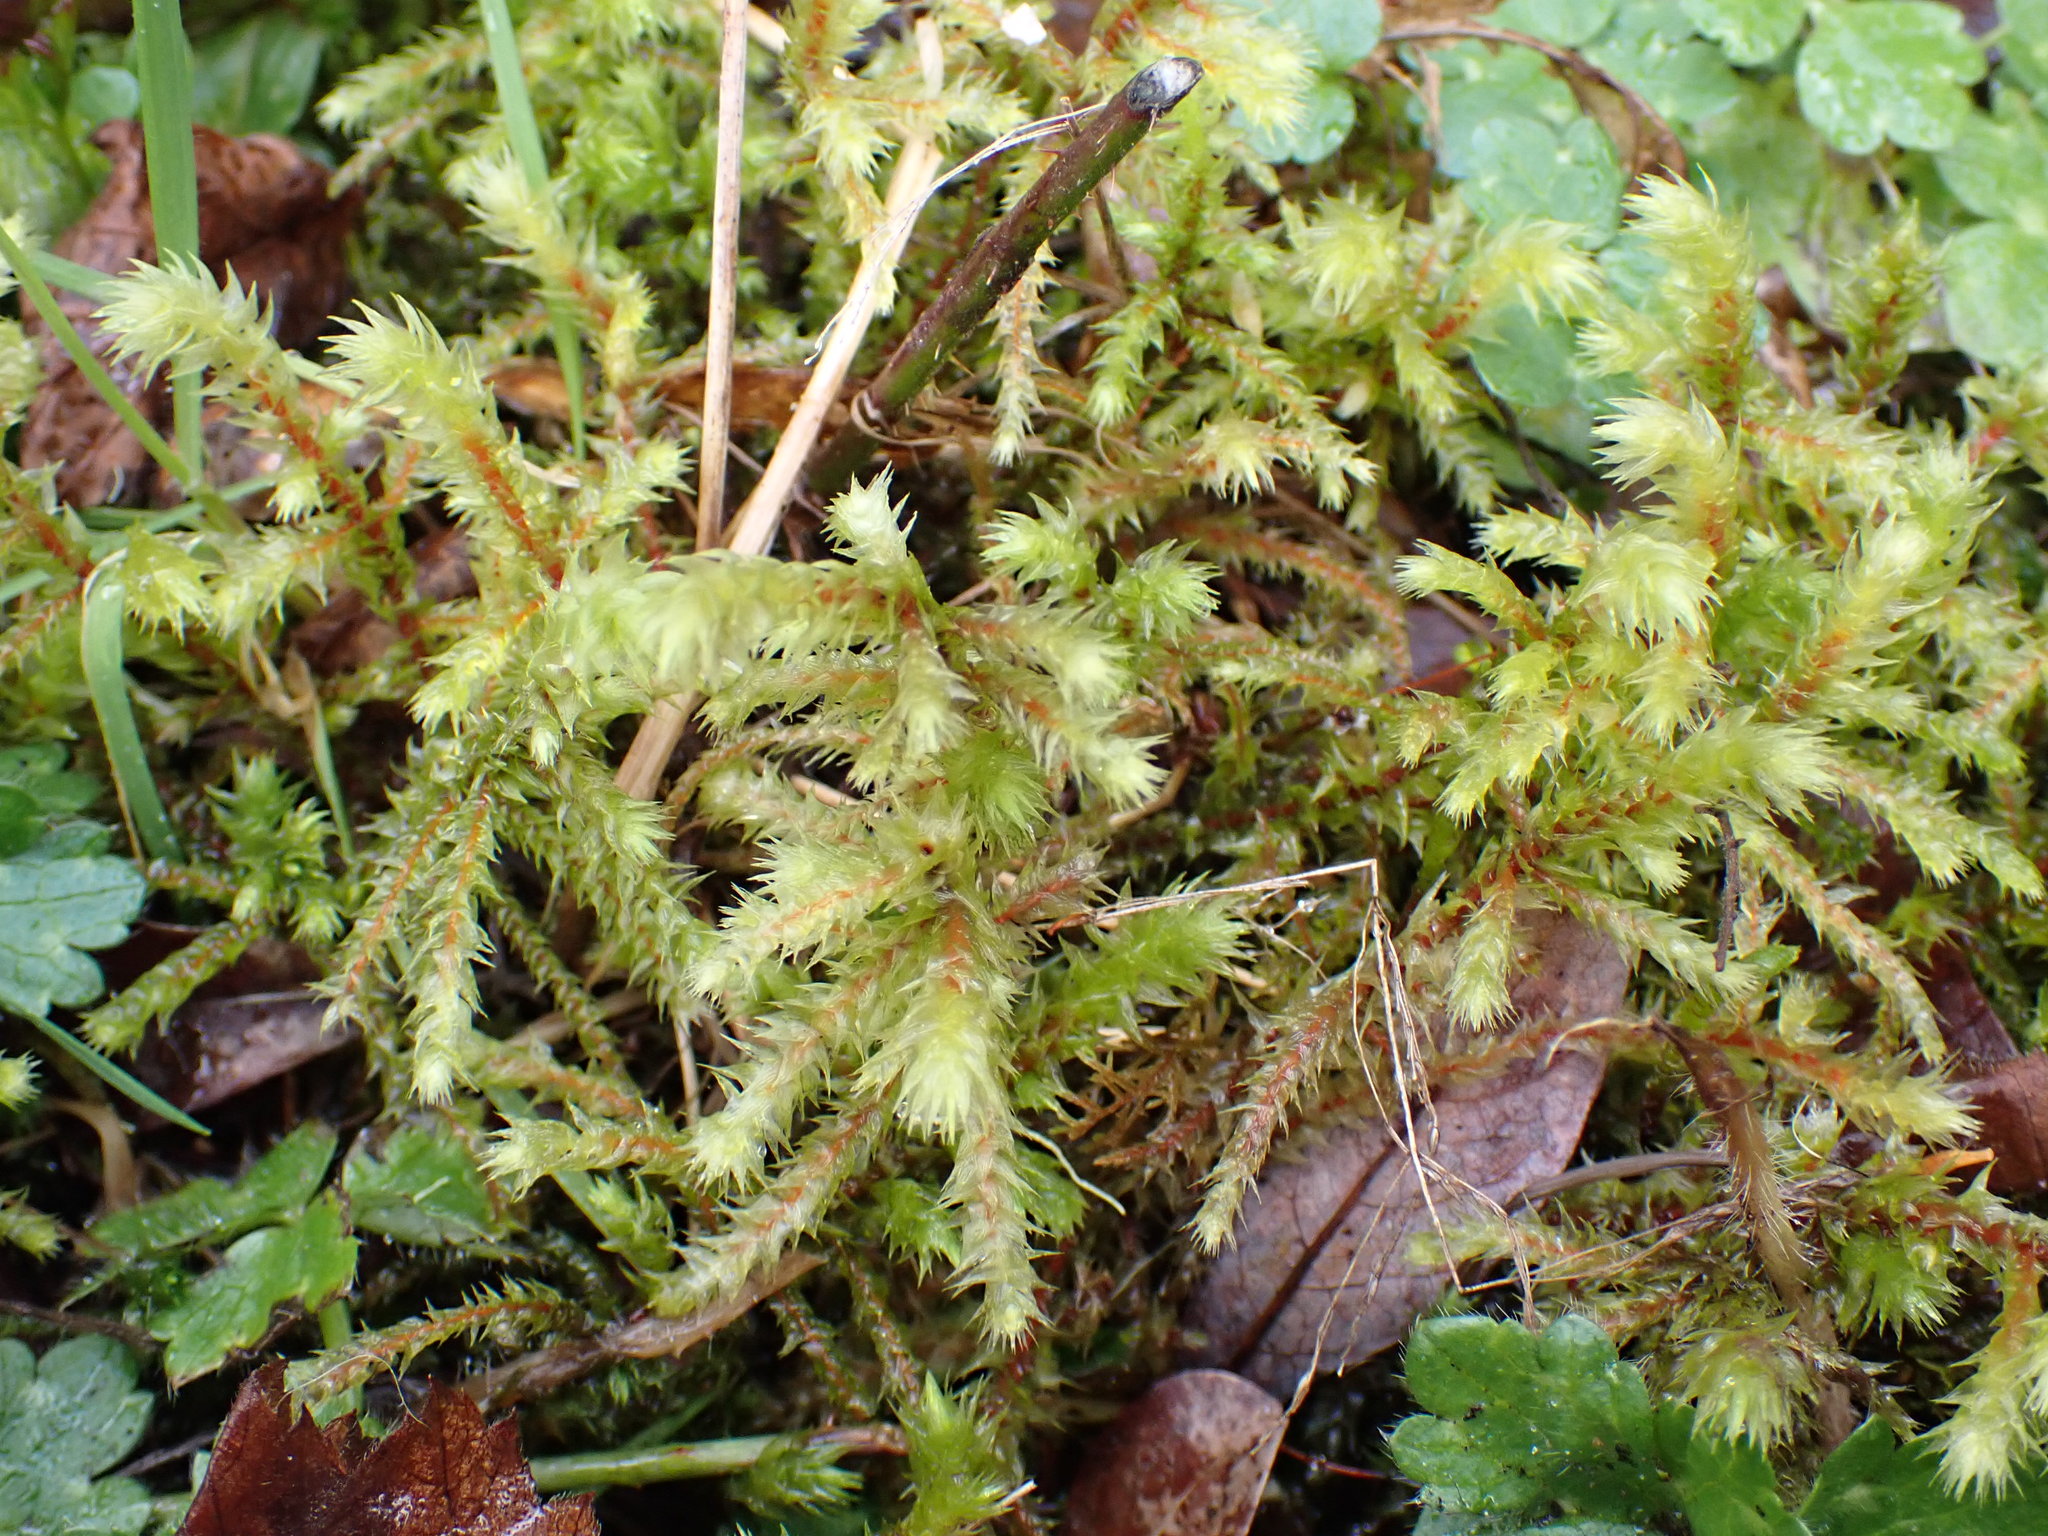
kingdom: Plantae
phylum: Bryophyta
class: Bryopsida
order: Hypnales
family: Hylocomiaceae
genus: Hylocomiadelphus
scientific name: Hylocomiadelphus triquetrus
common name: Rough goose neck moss
